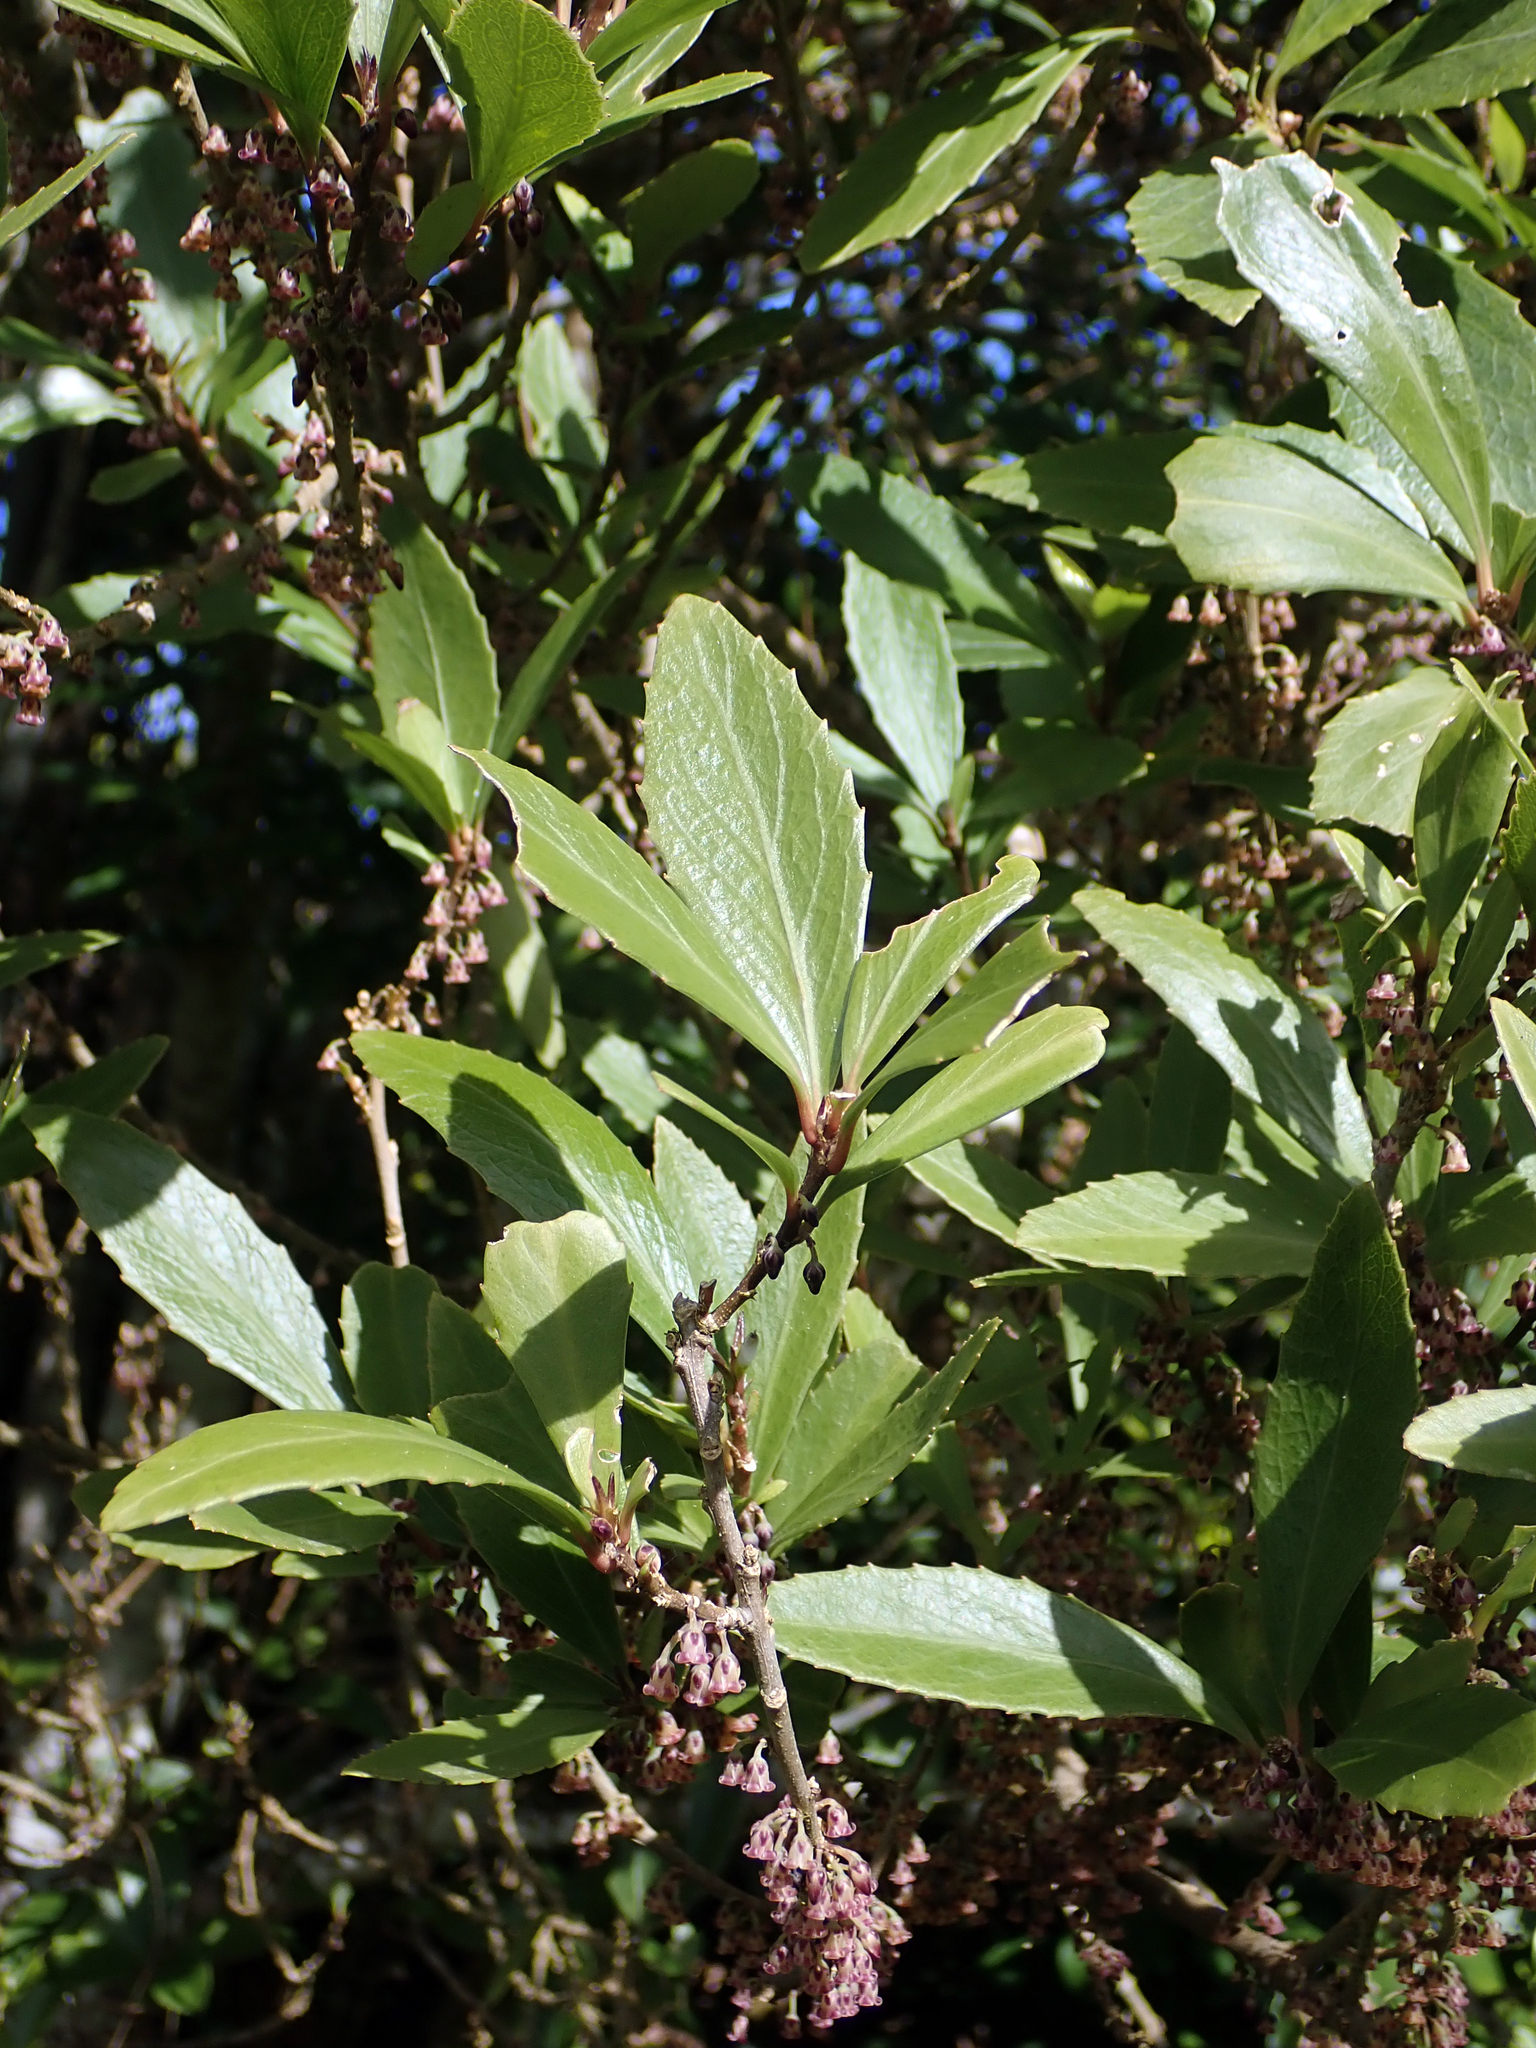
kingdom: Plantae
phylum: Tracheophyta
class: Magnoliopsida
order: Malpighiales
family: Violaceae
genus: Melicytus
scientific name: Melicytus chathamicus
